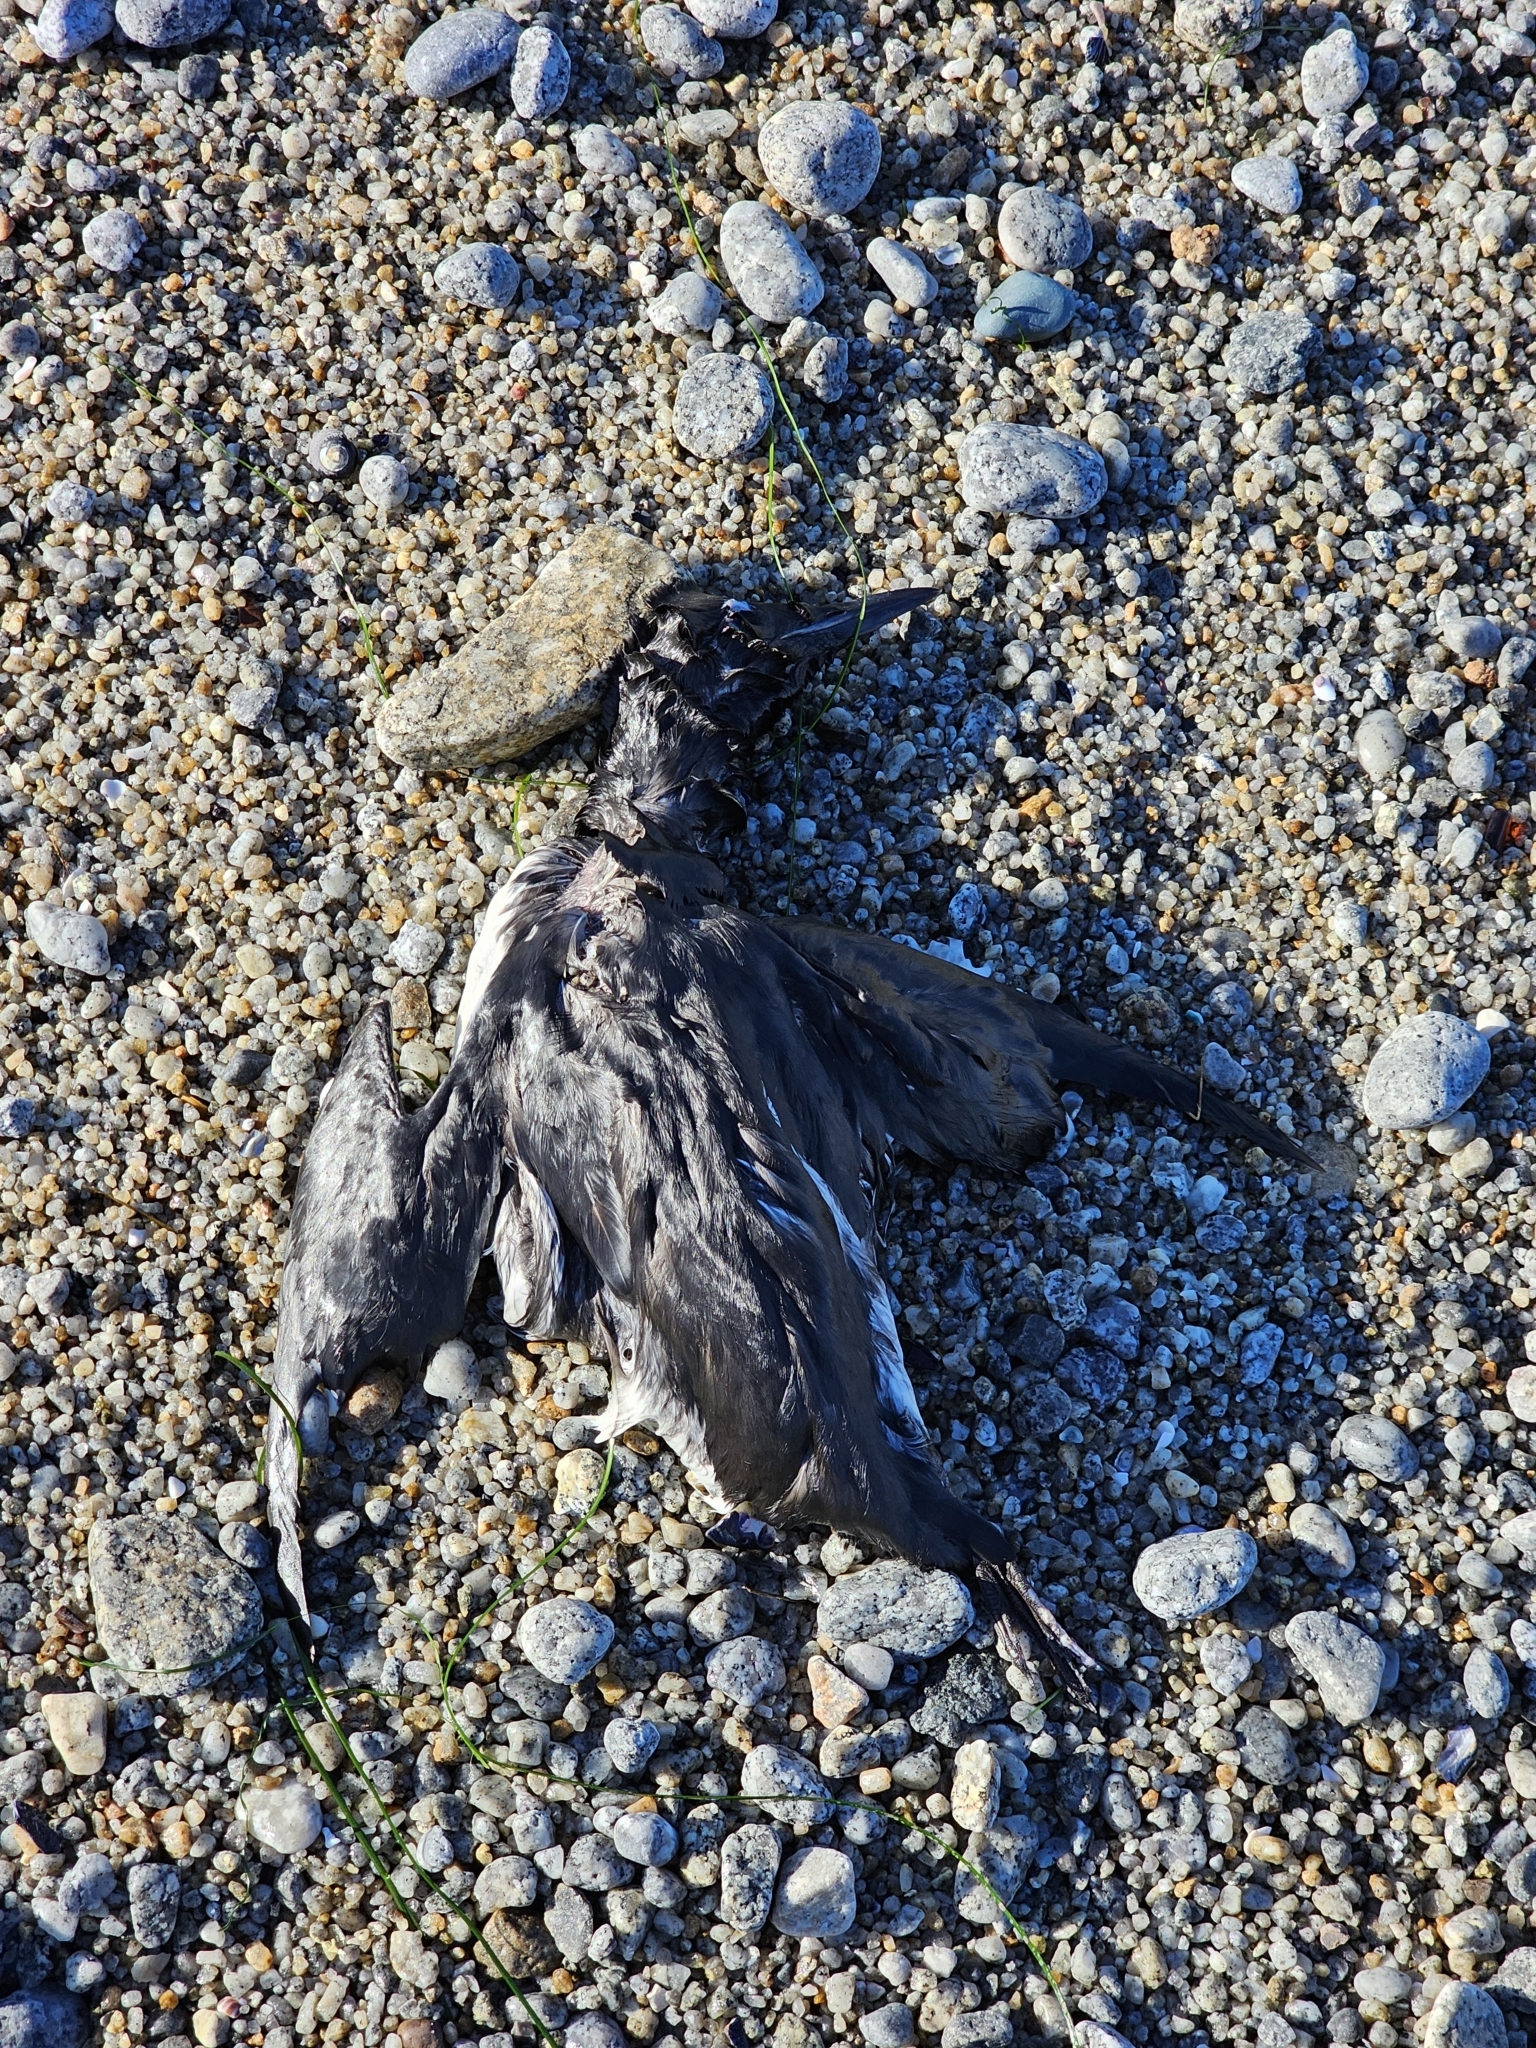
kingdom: Animalia
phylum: Chordata
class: Aves
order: Charadriiformes
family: Alcidae
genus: Uria
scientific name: Uria aalge
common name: Common murre
